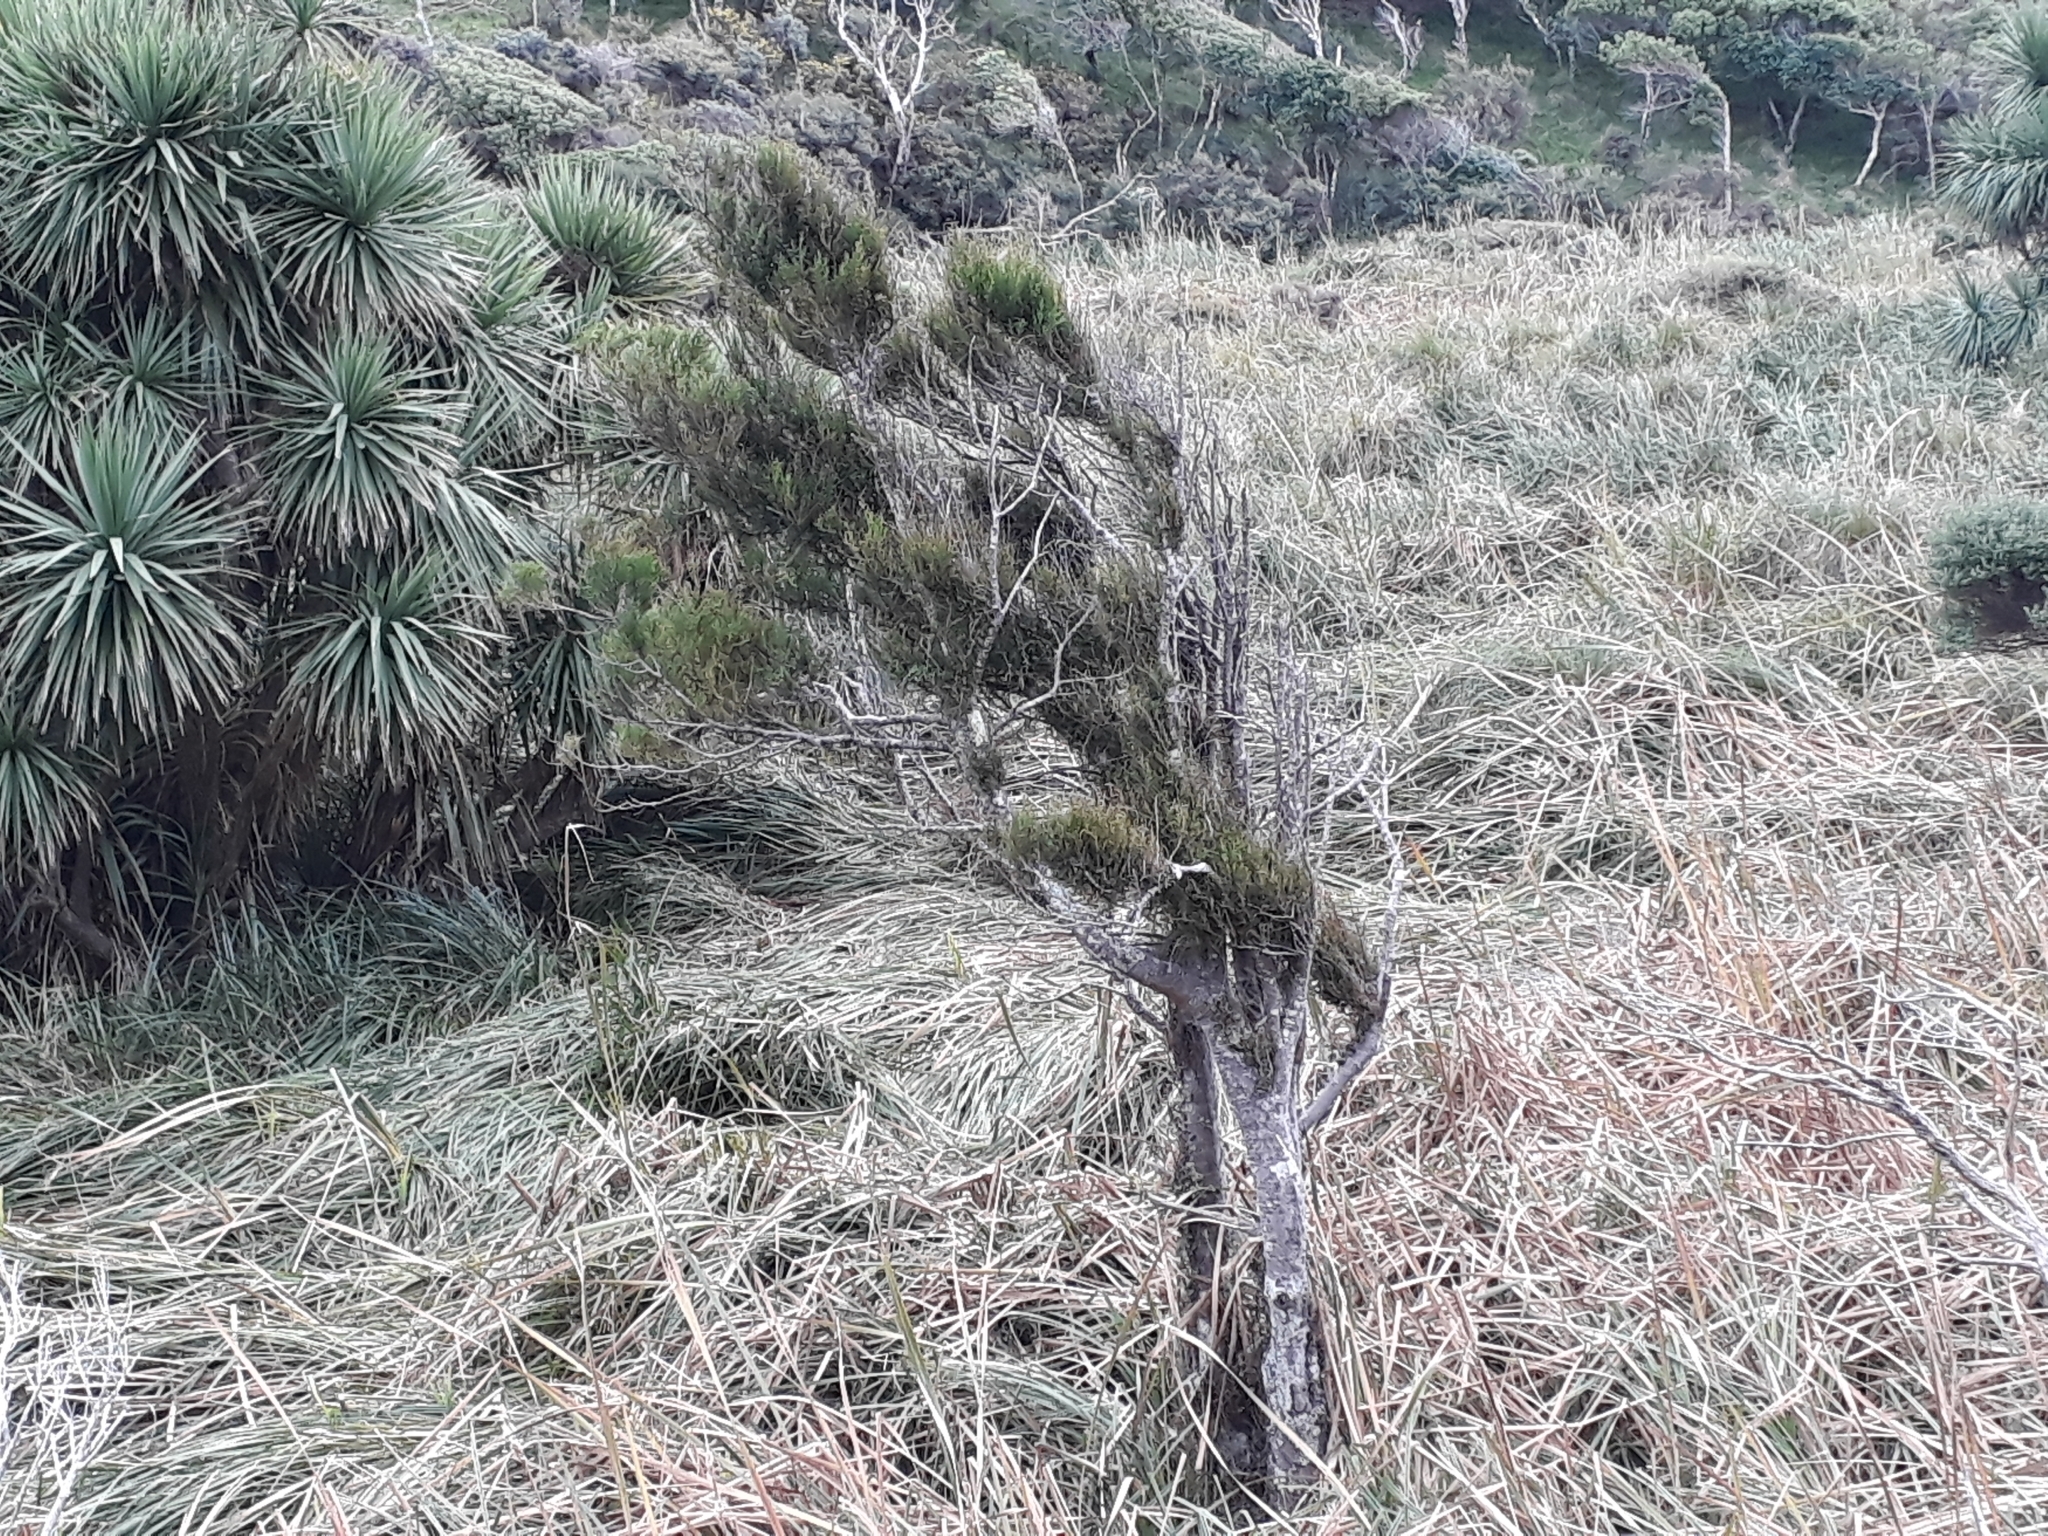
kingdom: Plantae
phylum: Tracheophyta
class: Pinopsida
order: Pinales
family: Podocarpaceae
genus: Dacrycarpus
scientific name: Dacrycarpus dacrydioides
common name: White pine
